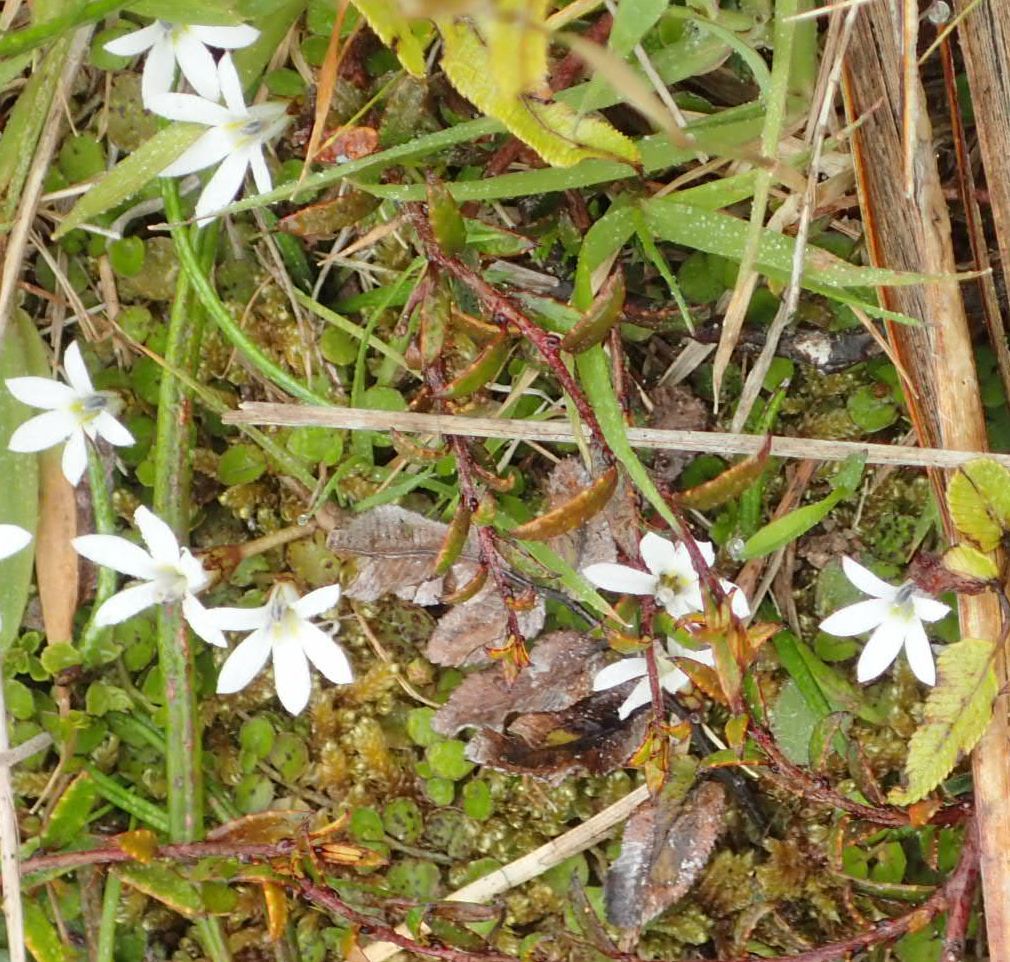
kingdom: Plantae
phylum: Tracheophyta
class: Magnoliopsida
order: Asterales
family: Campanulaceae
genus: Lobelia
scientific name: Lobelia angulata
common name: Lawn lobelia
